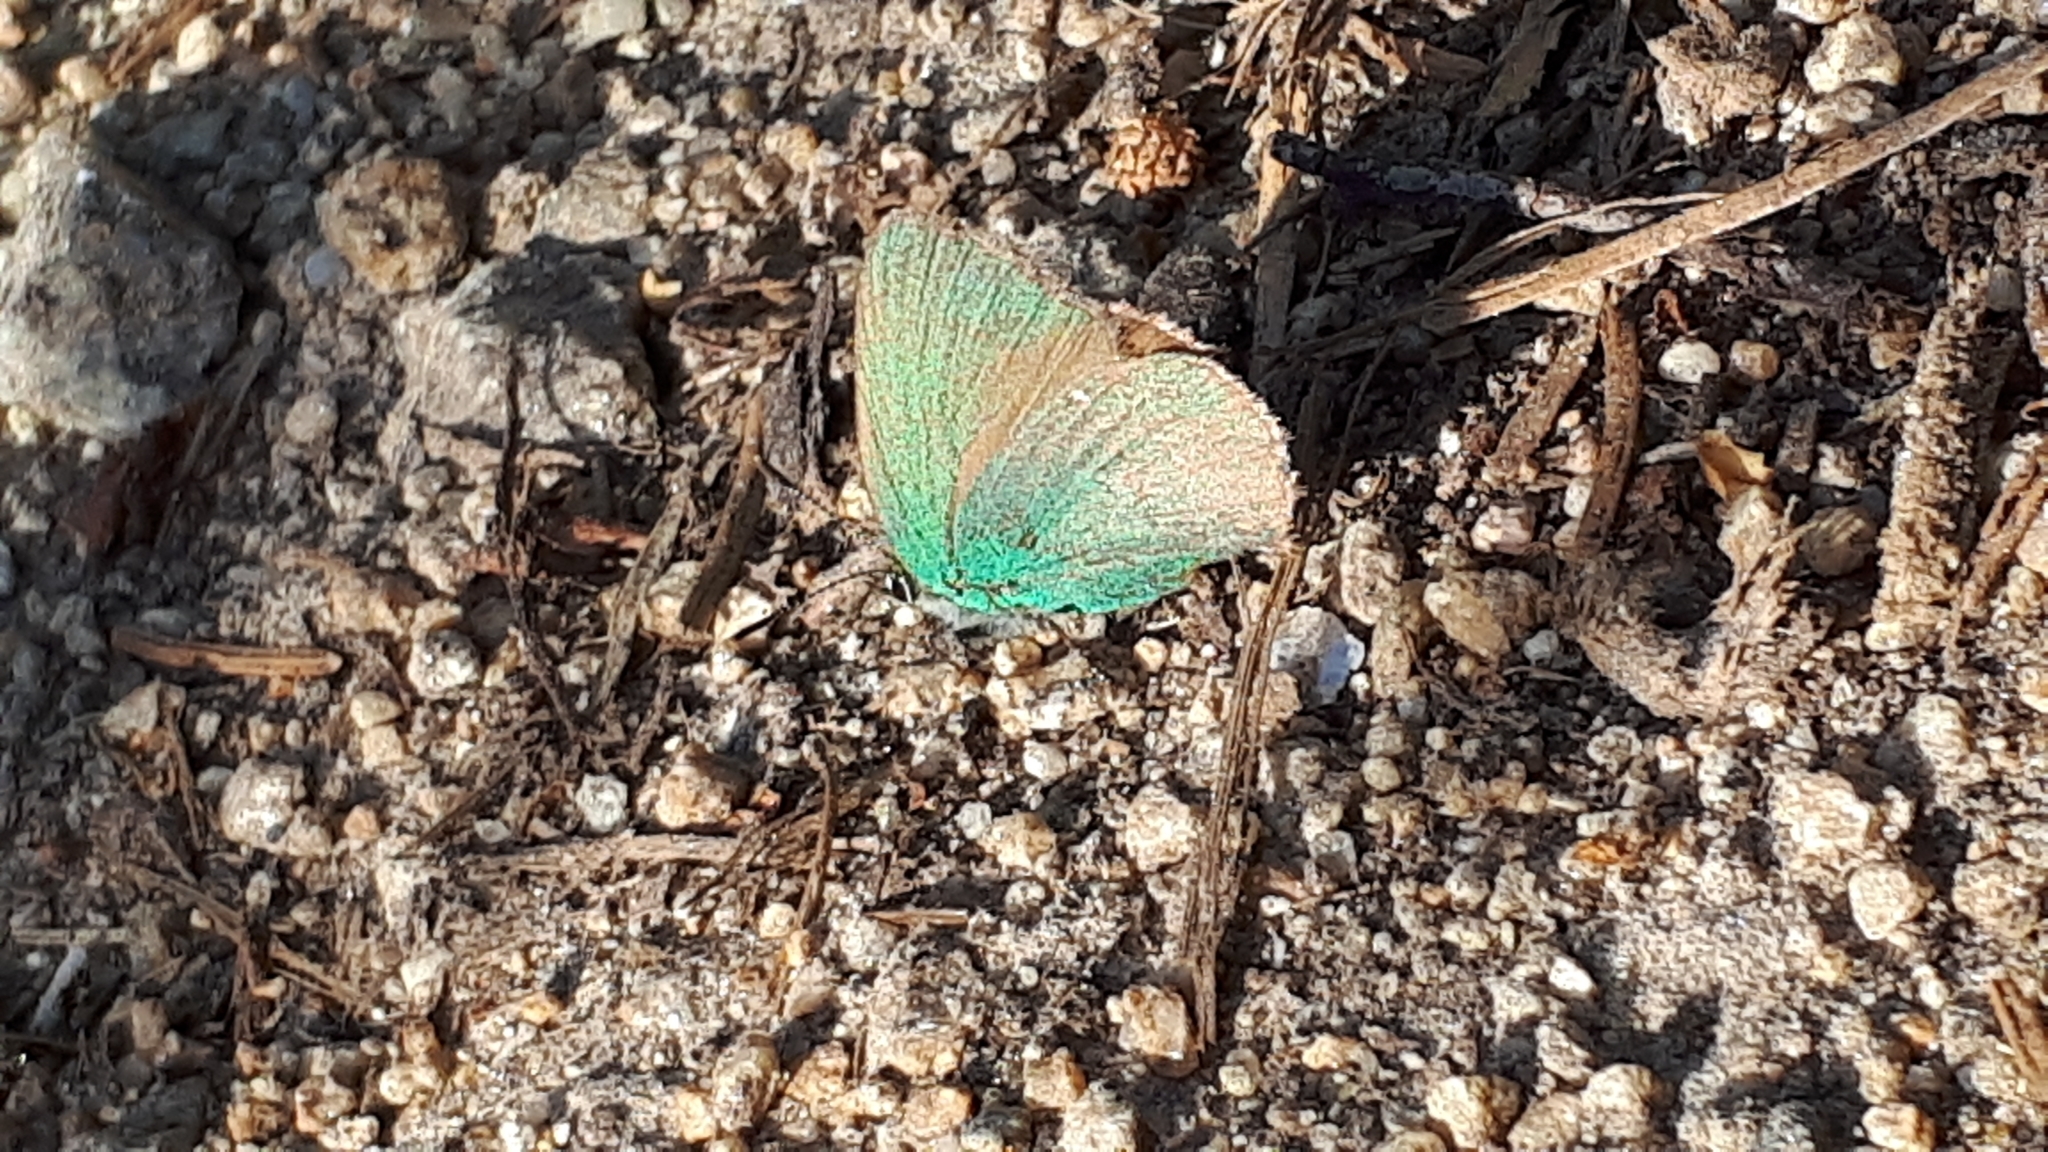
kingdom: Animalia
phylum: Arthropoda
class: Insecta
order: Lepidoptera
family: Lycaenidae
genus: Callophrys
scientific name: Callophrys rubi
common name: Green hairstreak
